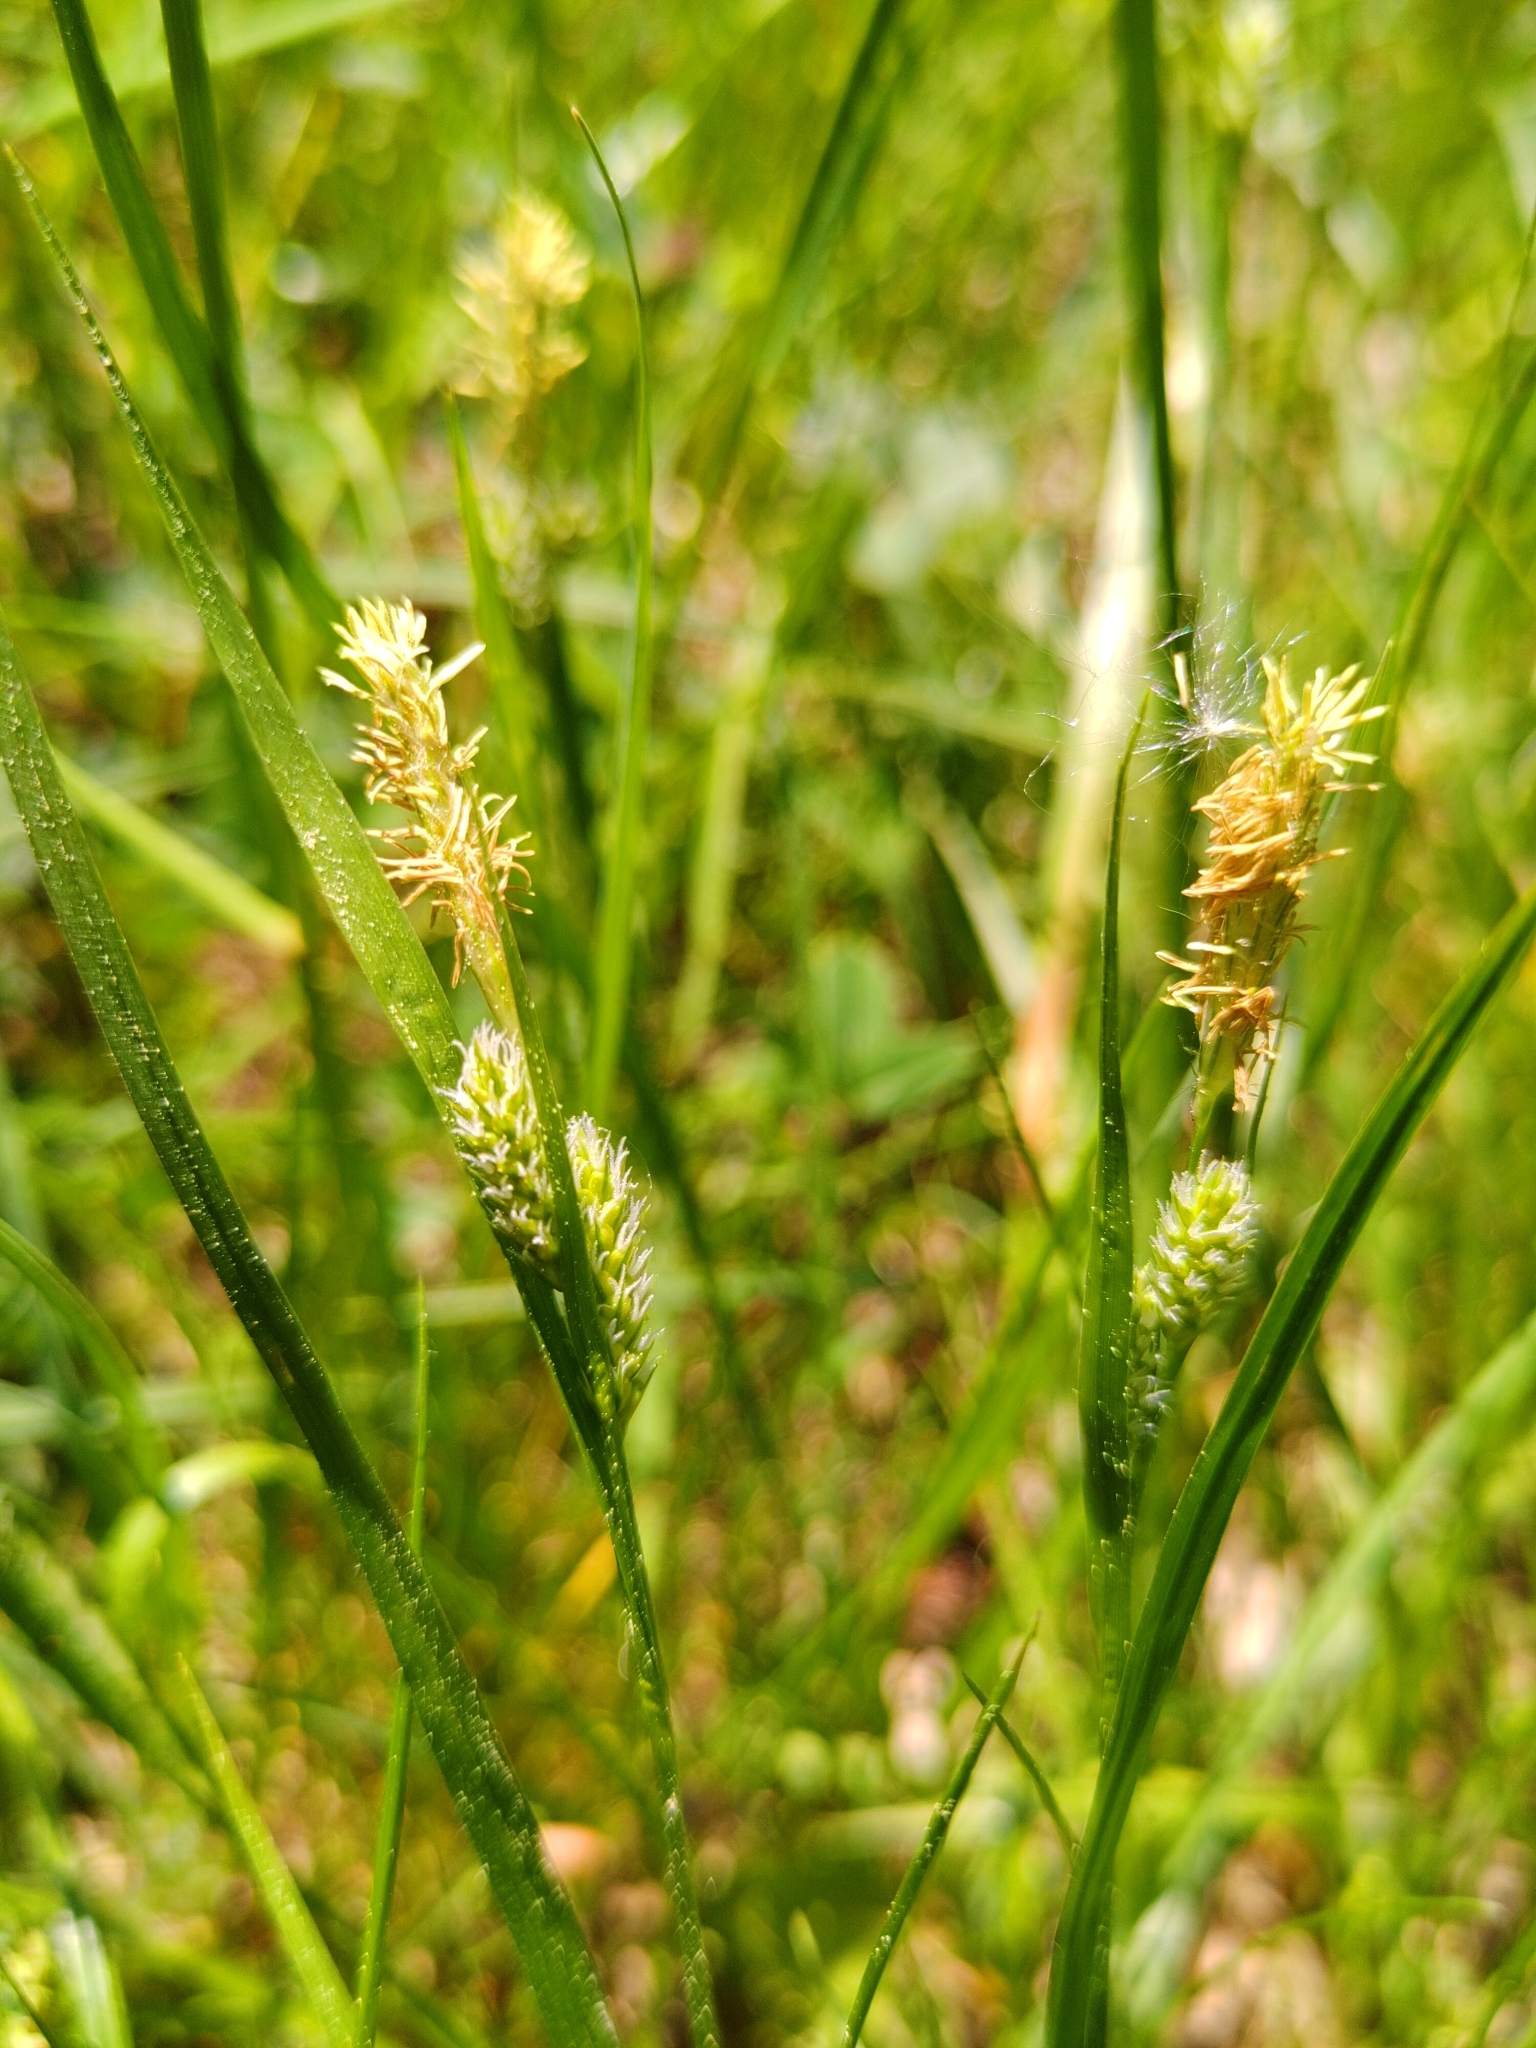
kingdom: Plantae
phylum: Tracheophyta
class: Liliopsida
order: Poales
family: Cyperaceae
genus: Carex
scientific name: Carex pallescens
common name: Pale sedge
